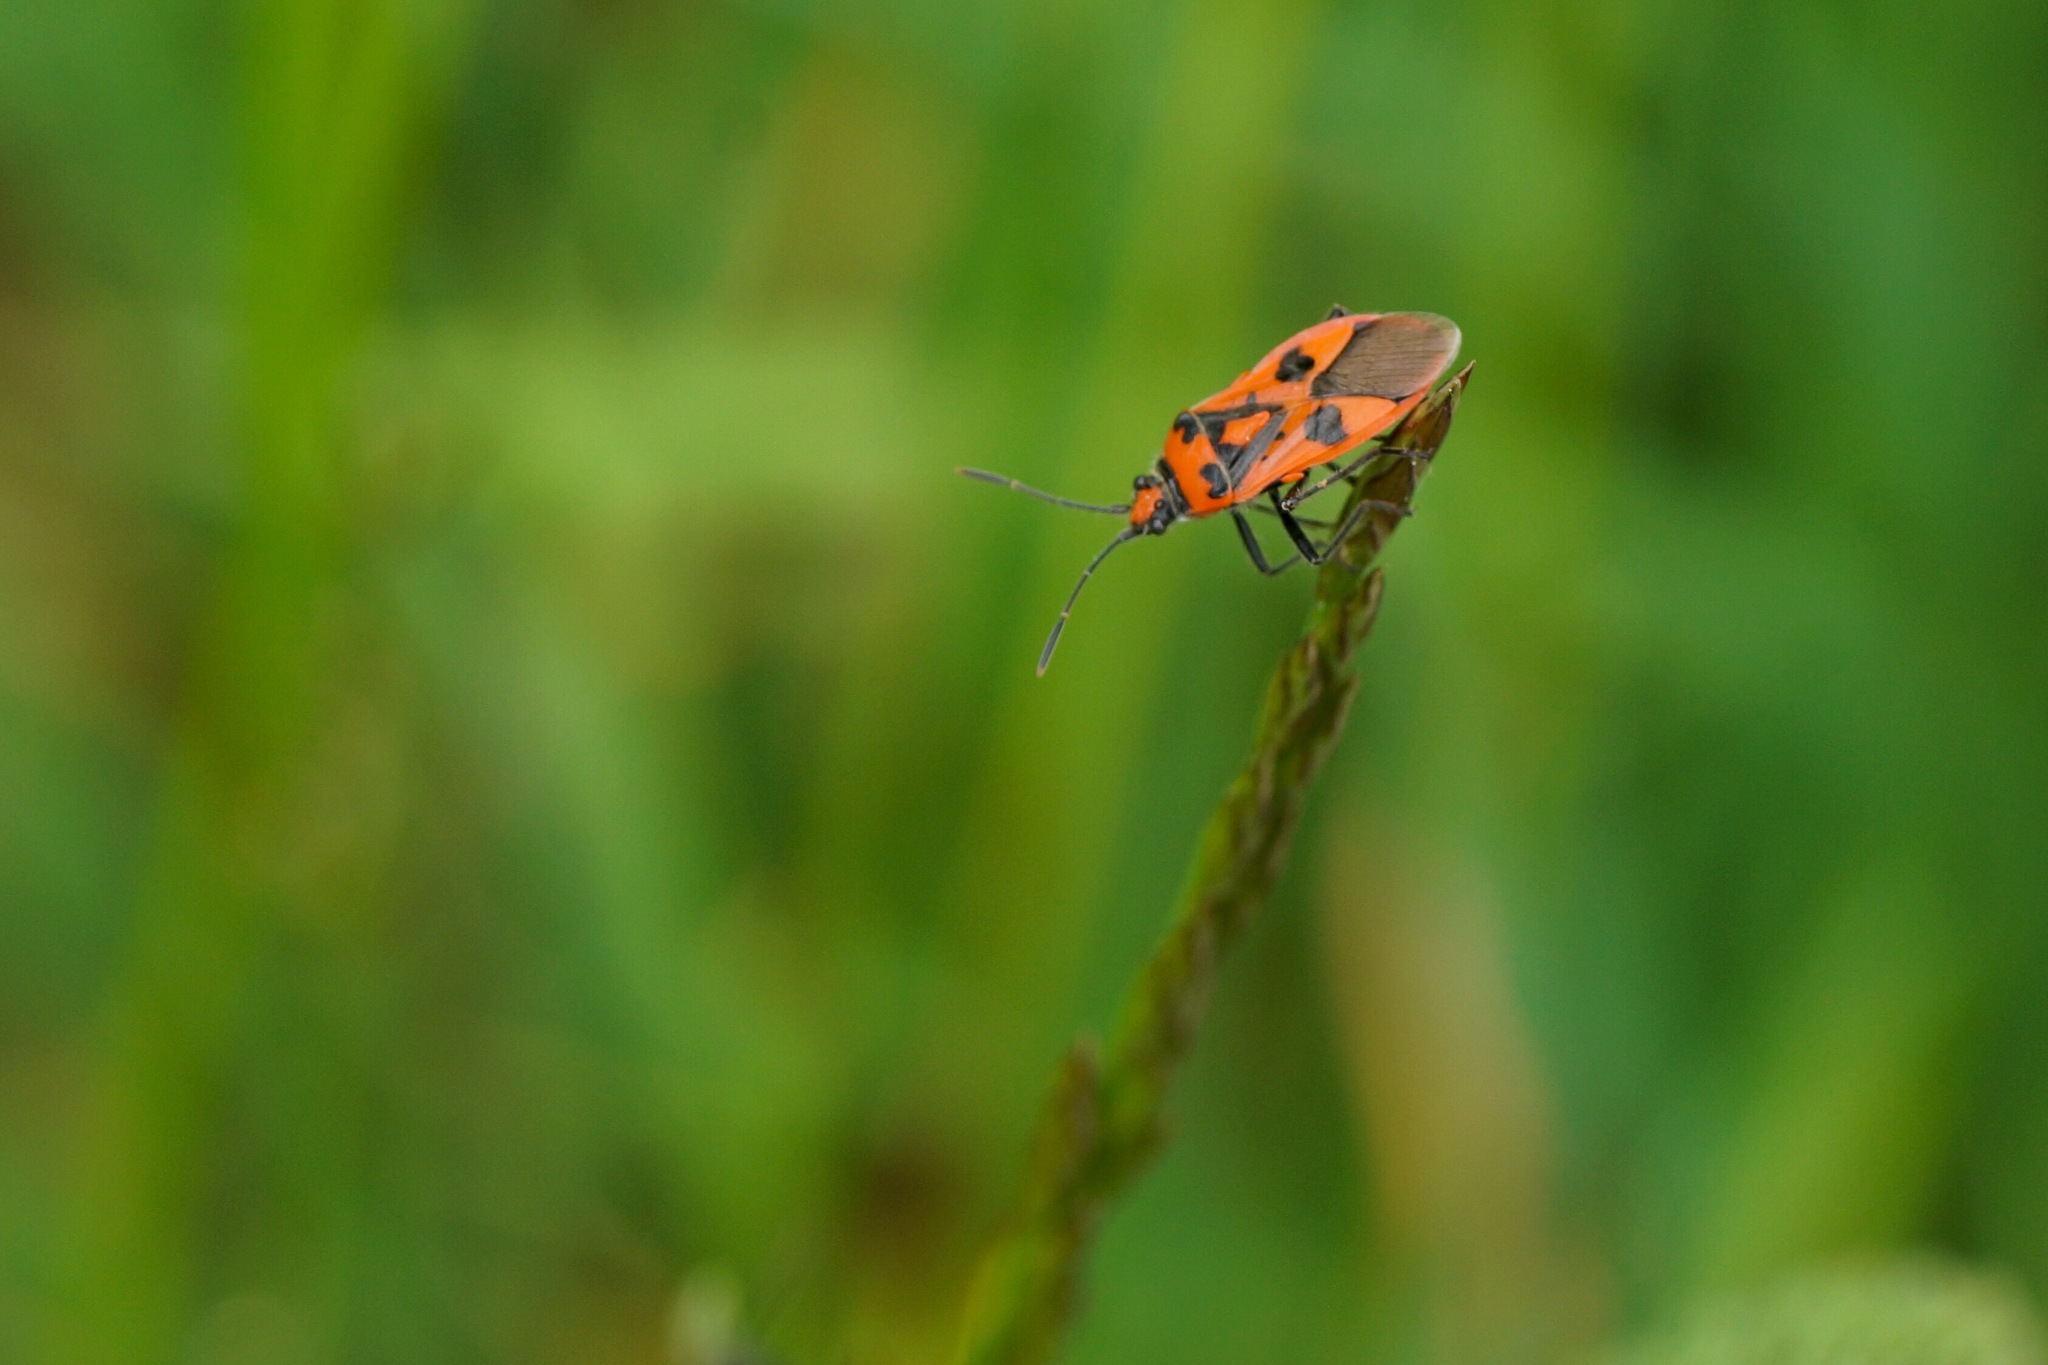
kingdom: Animalia
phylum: Arthropoda
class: Insecta
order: Hemiptera
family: Rhopalidae
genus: Corizus
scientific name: Corizus hyoscyami
